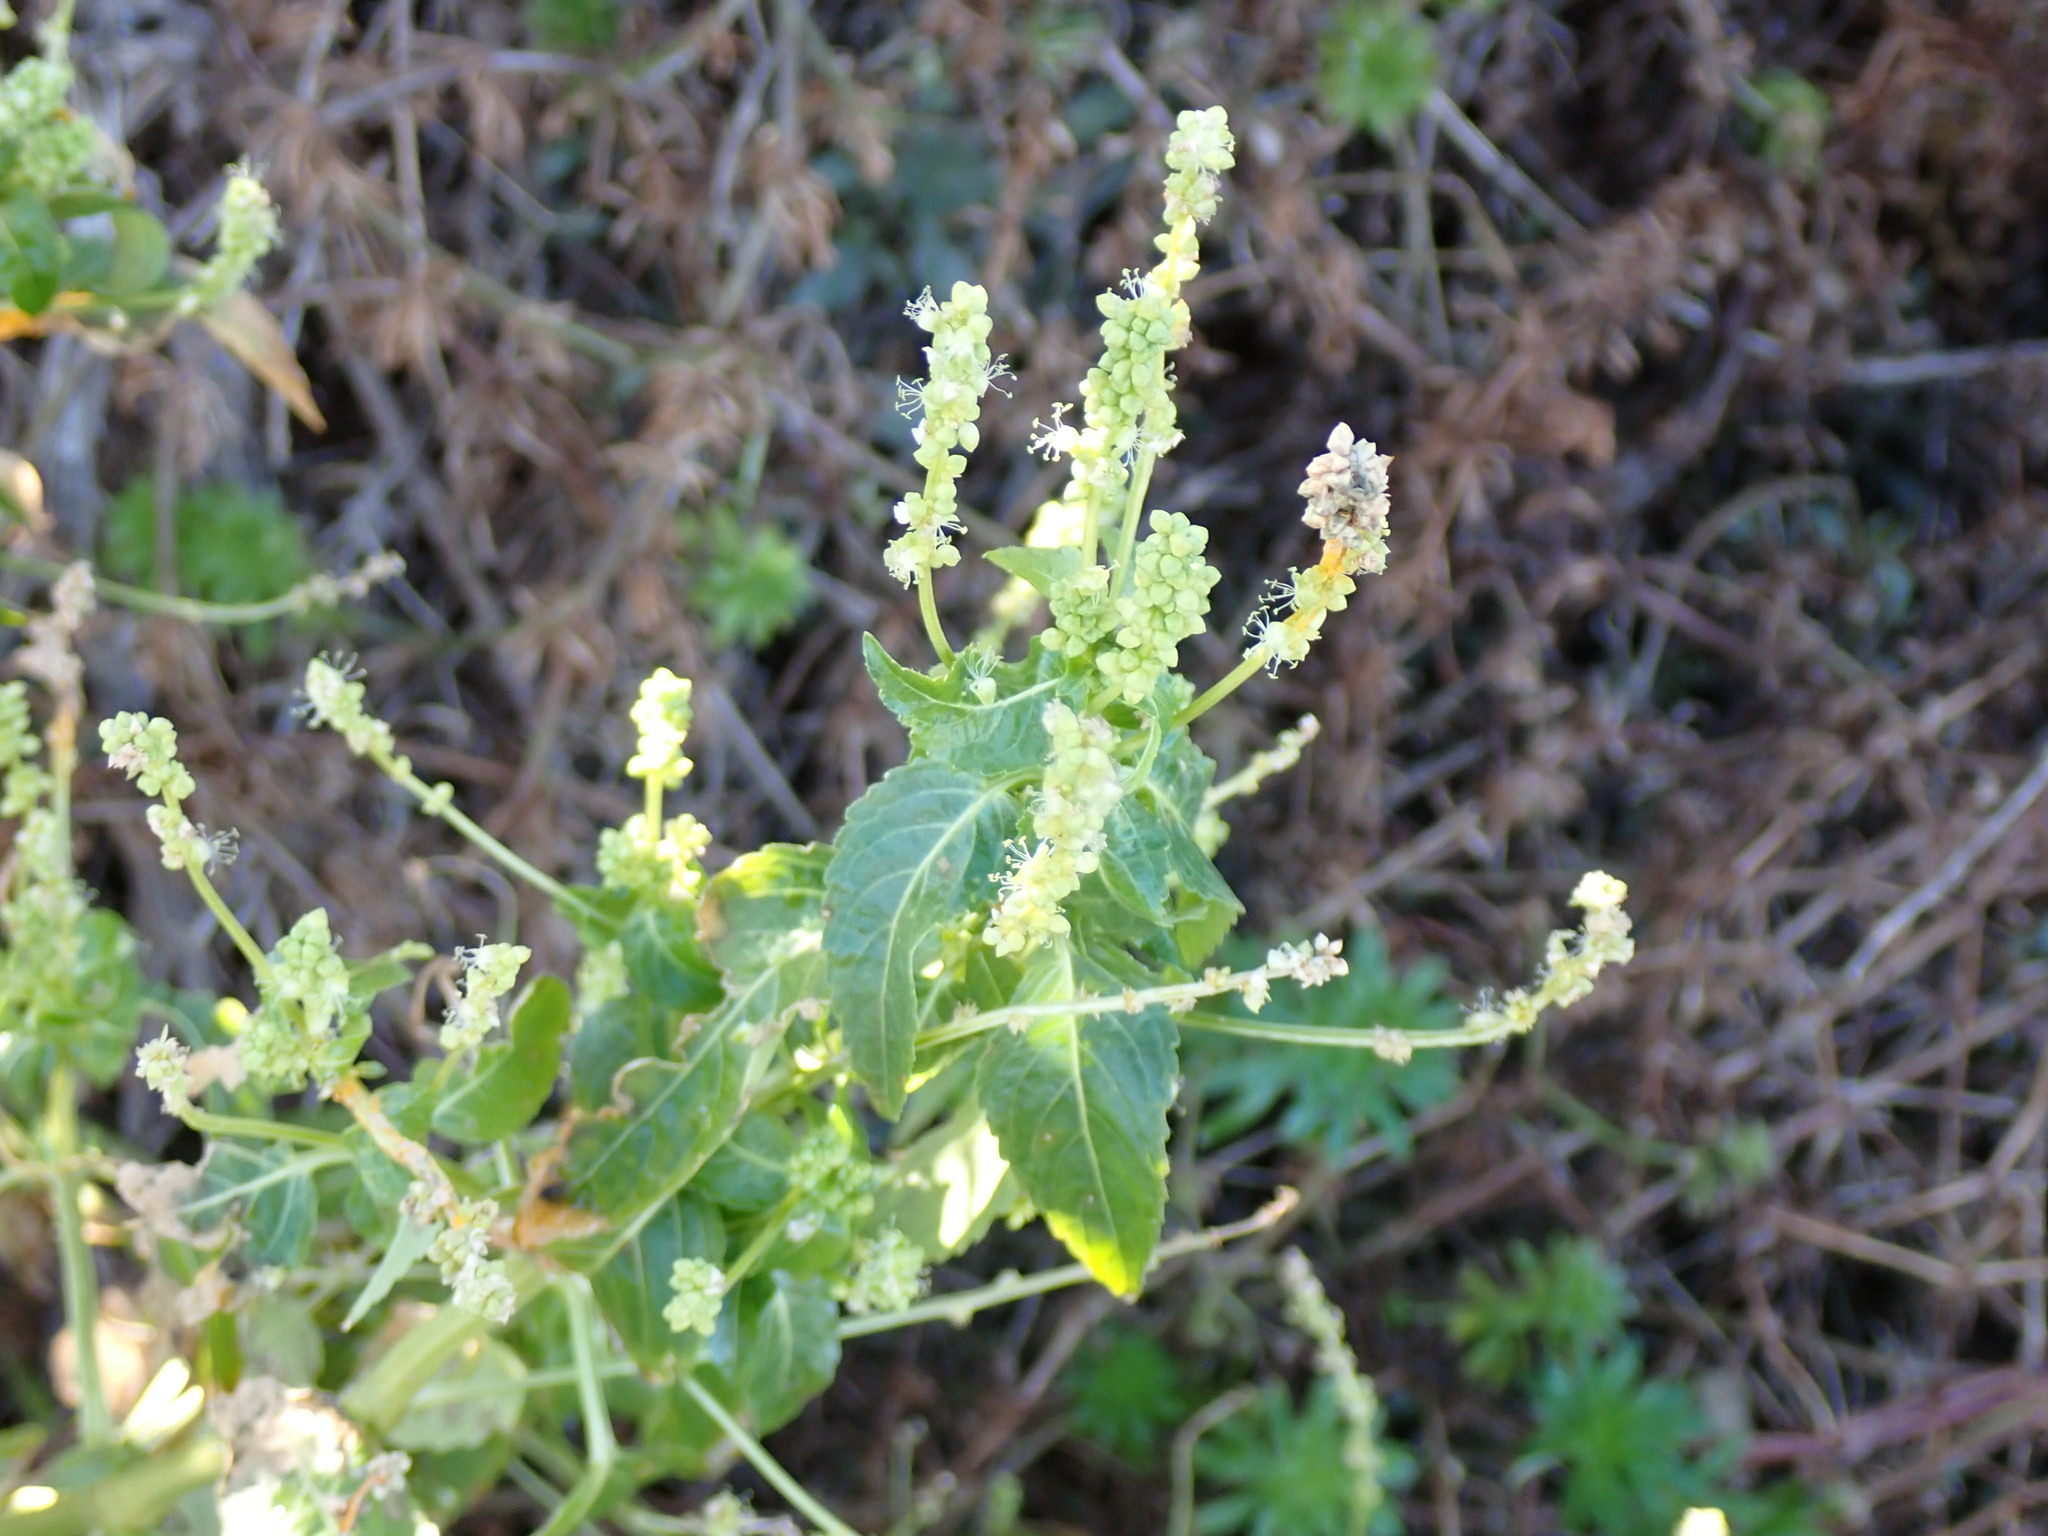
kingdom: Plantae
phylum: Tracheophyta
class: Magnoliopsida
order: Malpighiales
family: Euphorbiaceae
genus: Mercurialis
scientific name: Mercurialis annua
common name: Annual mercury
